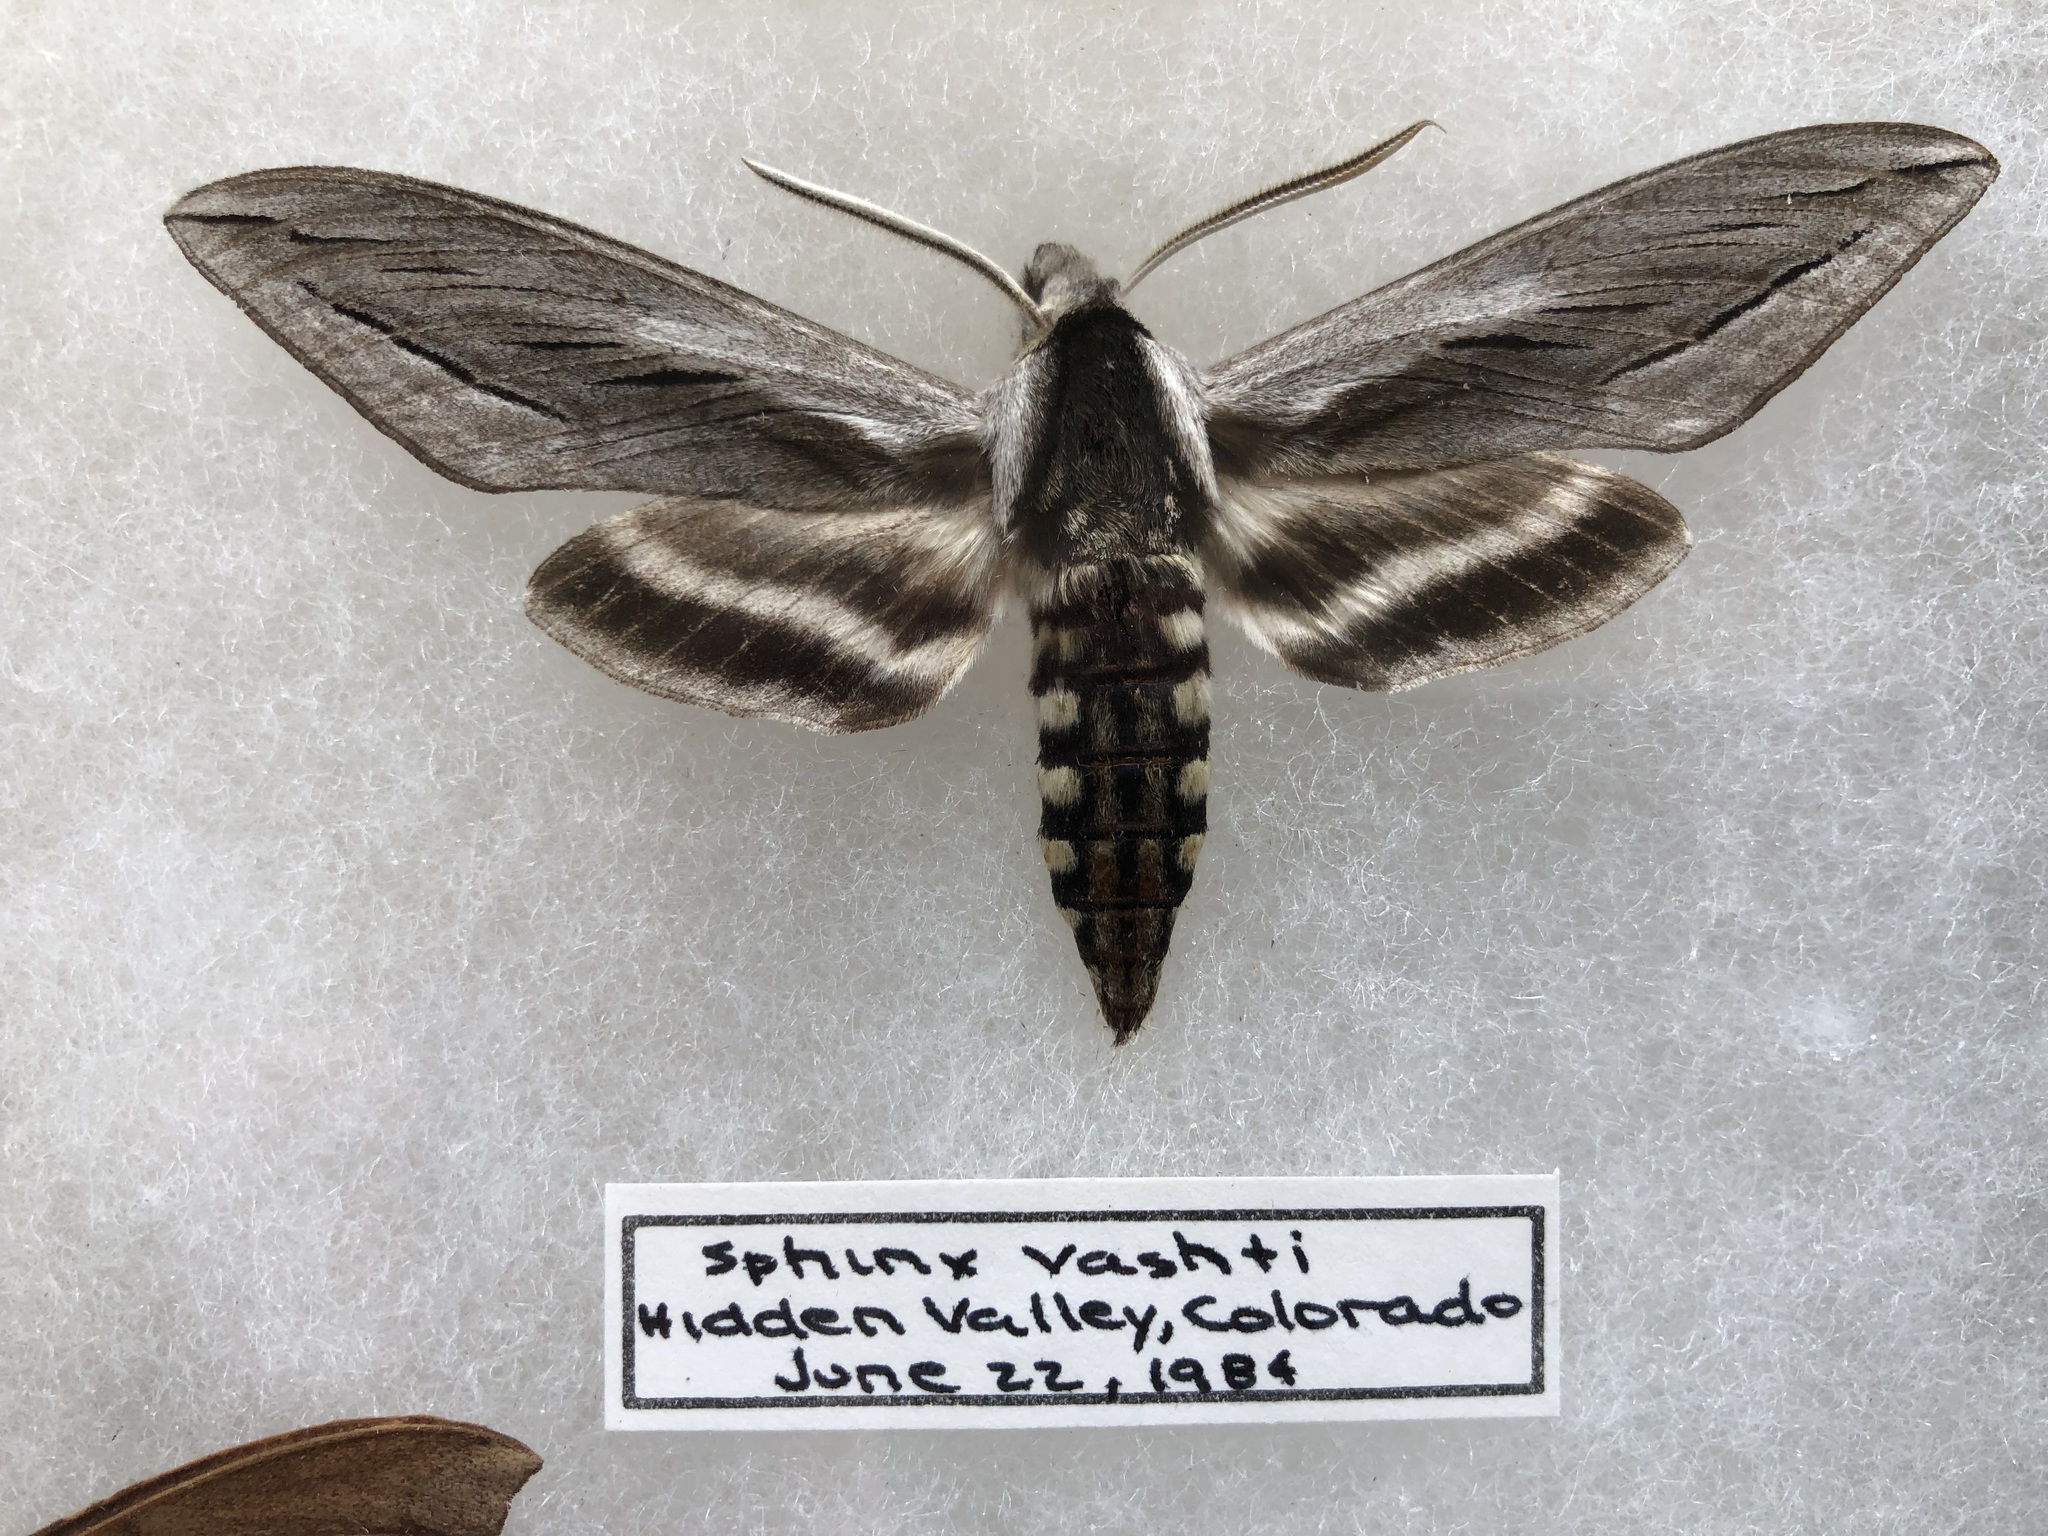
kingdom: Animalia
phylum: Arthropoda
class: Insecta
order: Lepidoptera
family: Sphingidae
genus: Sphinx
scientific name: Sphinx vashti
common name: Snowberry sphinx
